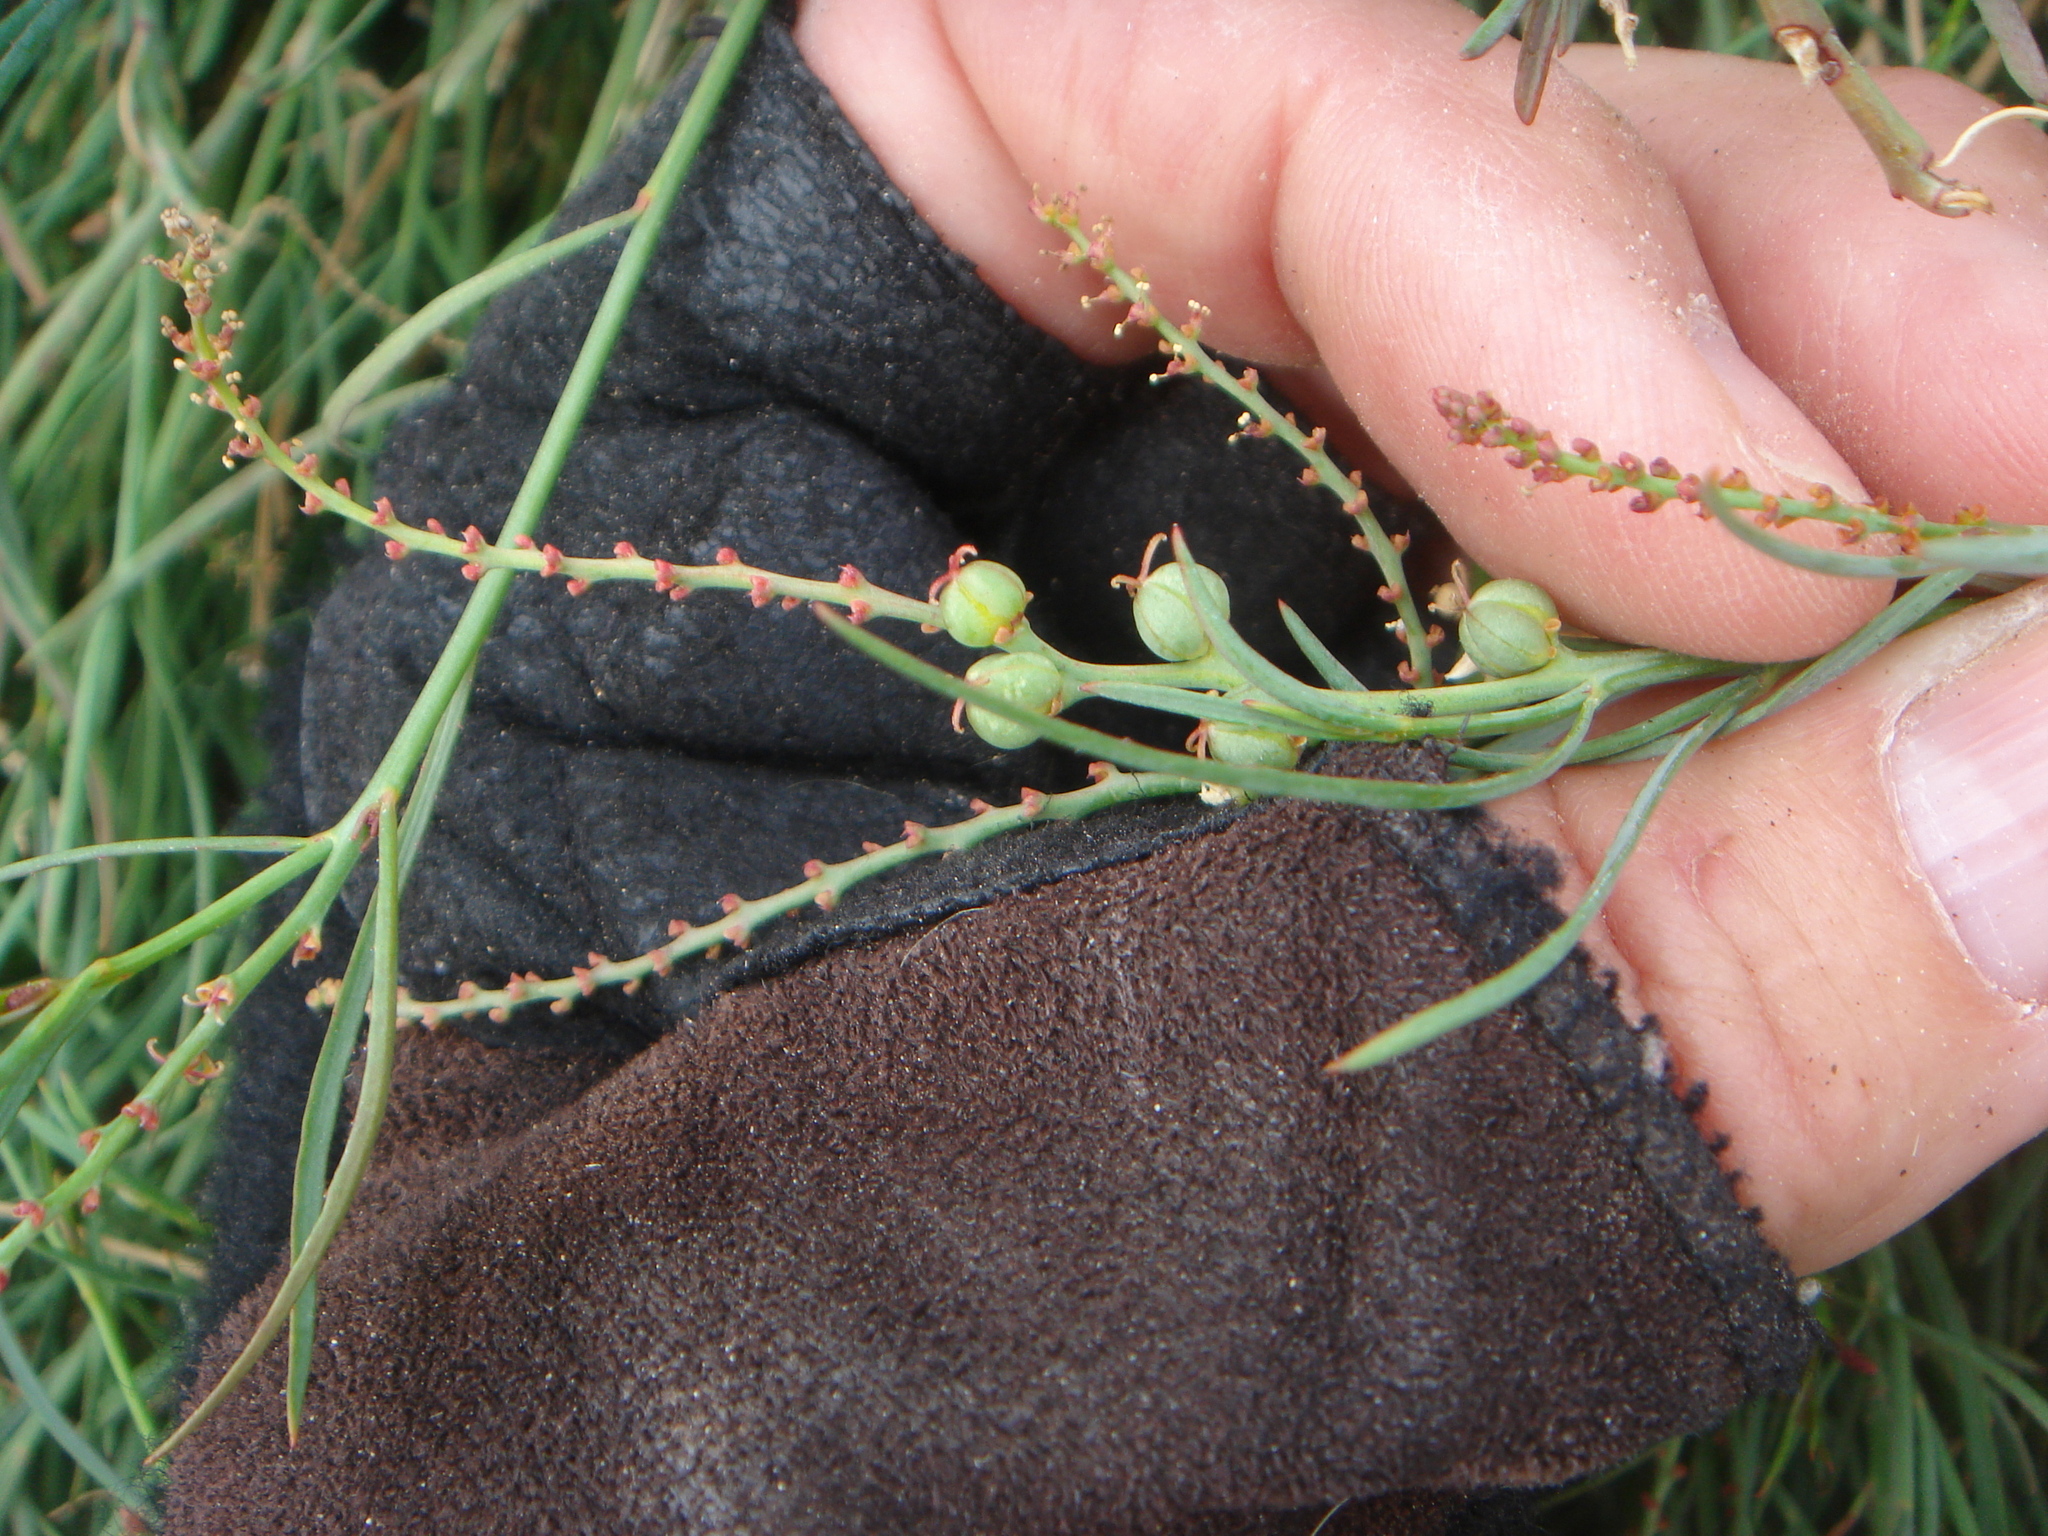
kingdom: Plantae
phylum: Tracheophyta
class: Magnoliopsida
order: Malpighiales
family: Euphorbiaceae
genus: Stillingia
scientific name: Stillingia linearifolia
